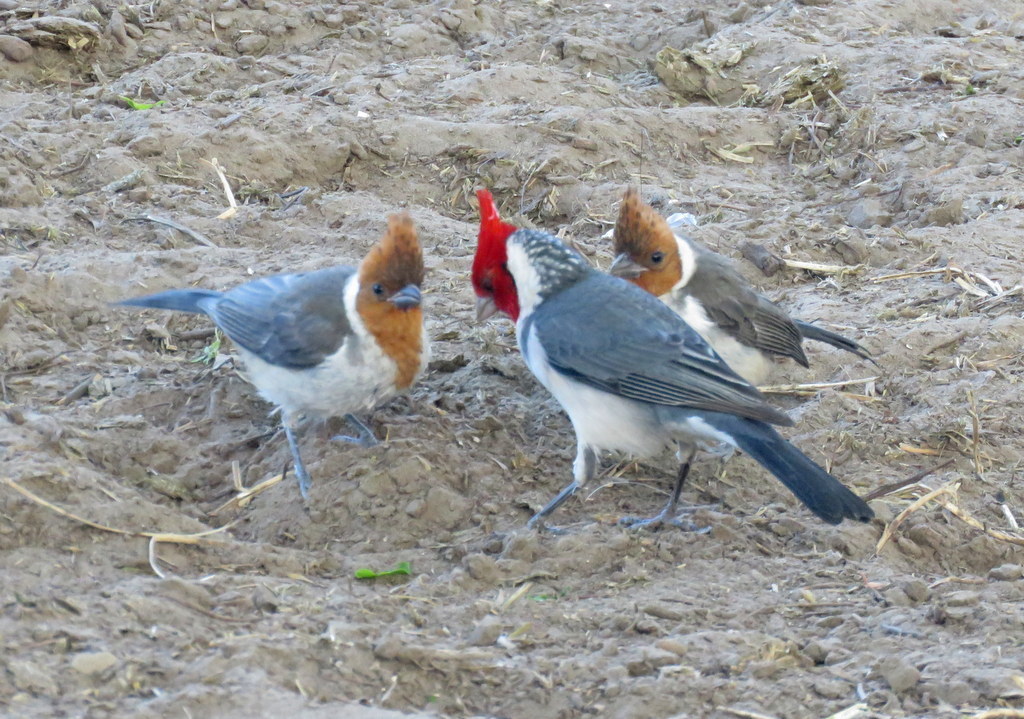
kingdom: Animalia
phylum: Chordata
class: Aves
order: Passeriformes
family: Thraupidae
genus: Paroaria
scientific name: Paroaria coronata
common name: Red-crested cardinal
